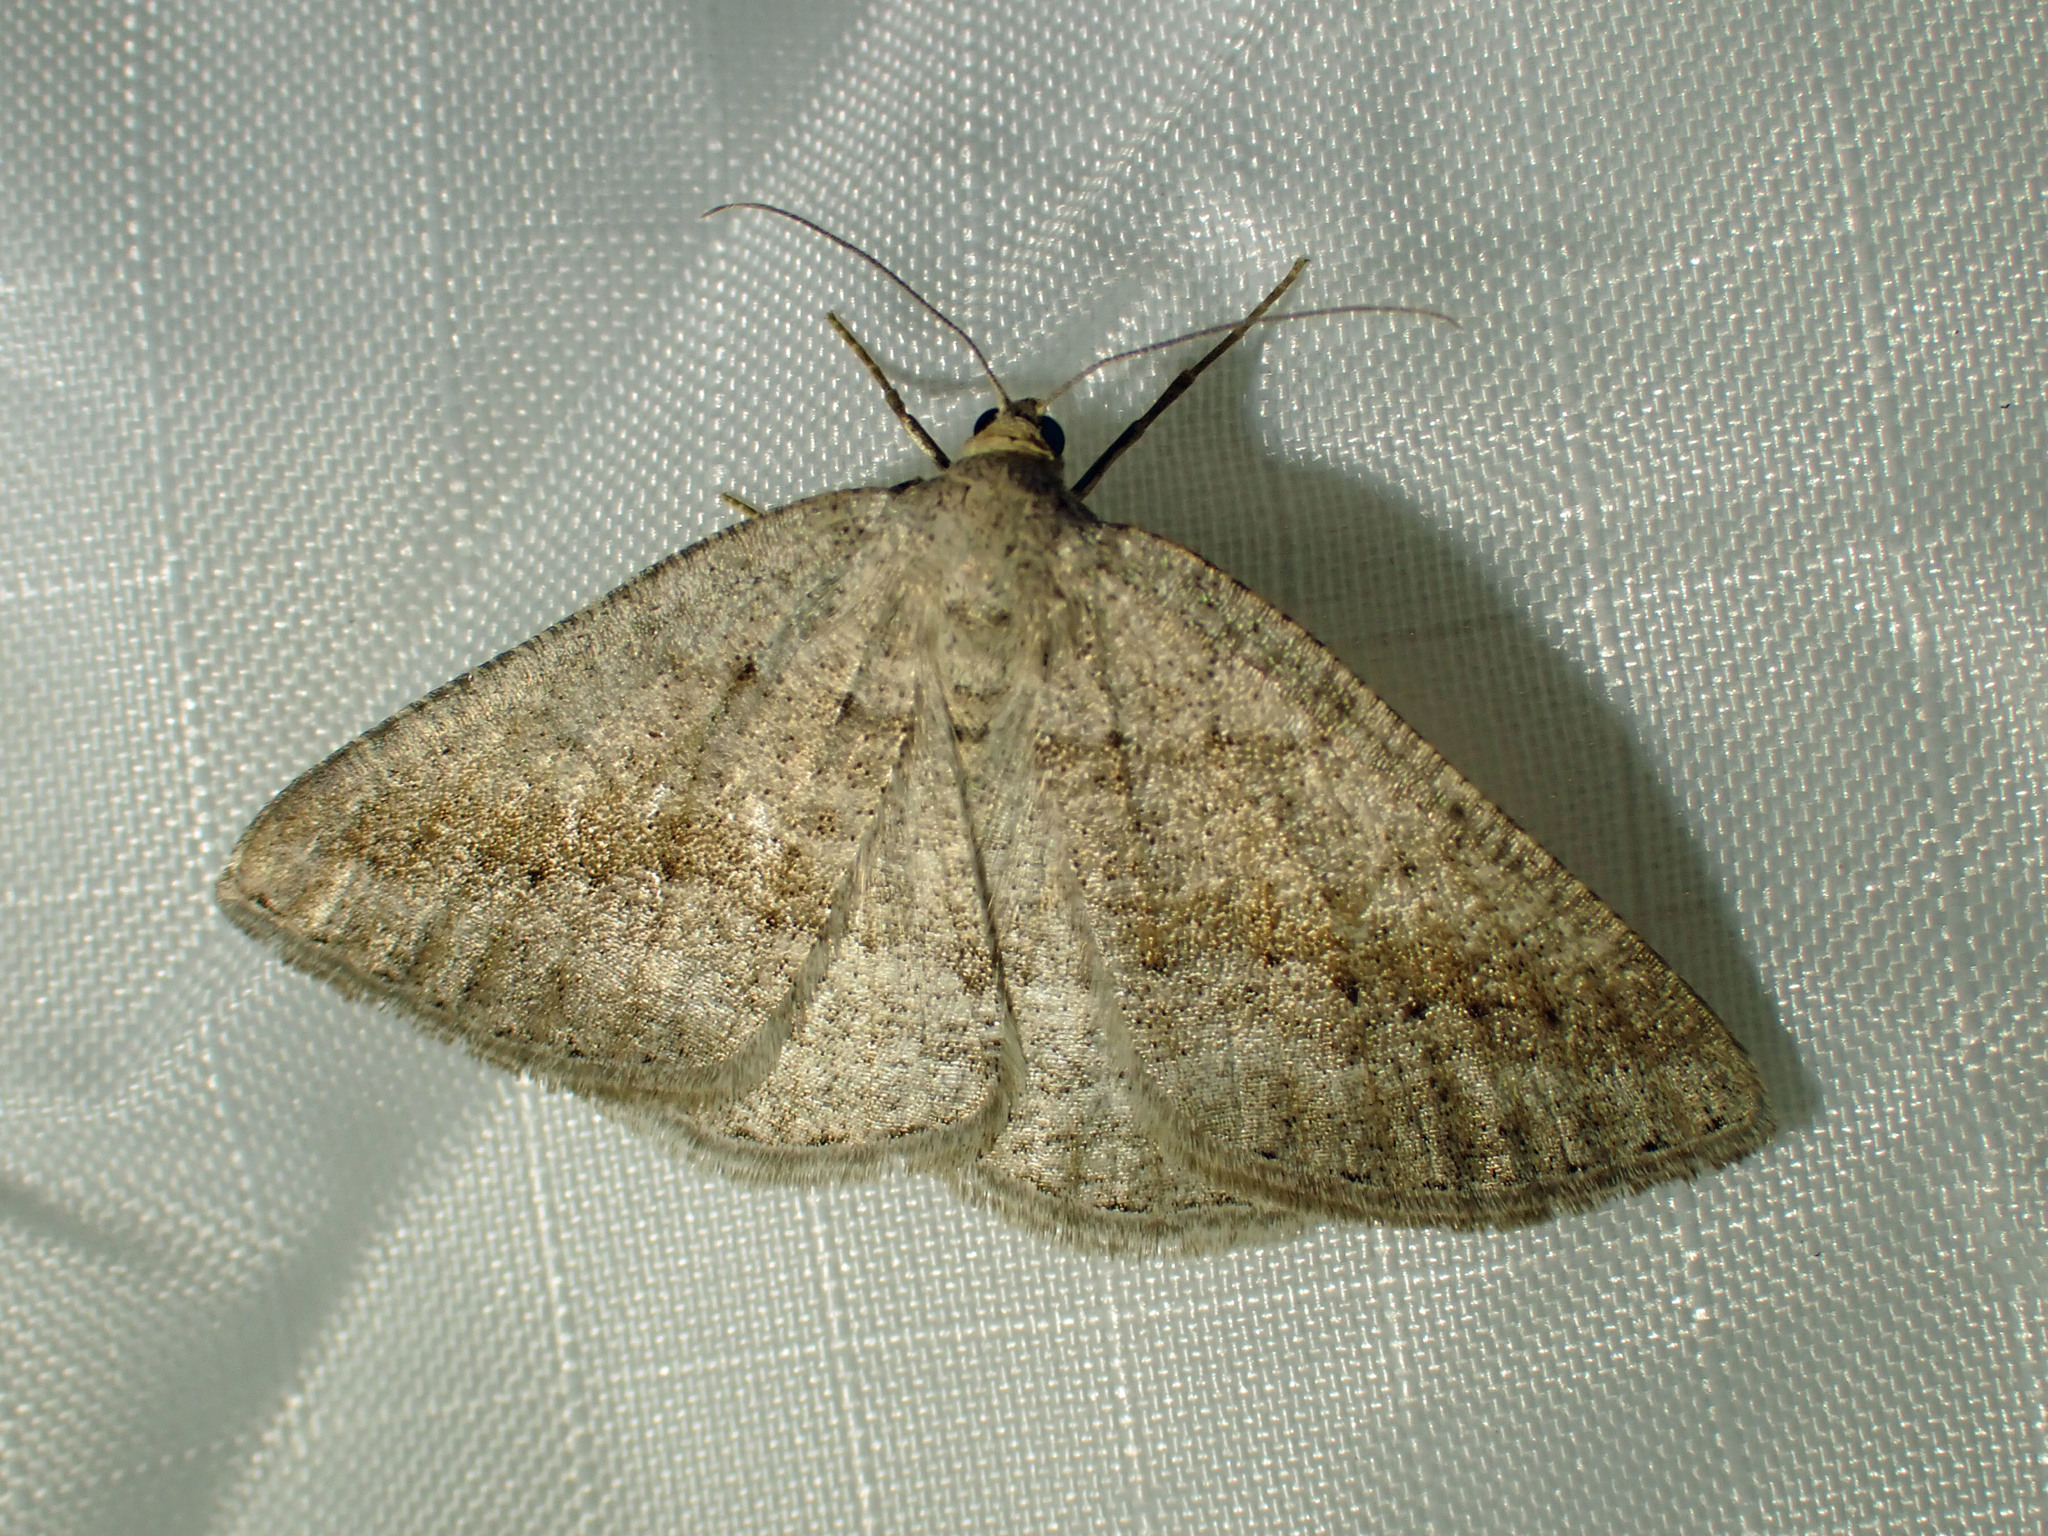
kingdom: Animalia
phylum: Arthropoda
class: Insecta
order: Lepidoptera
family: Geometridae
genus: Tacparia
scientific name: Tacparia detersata
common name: Pale alder moth
